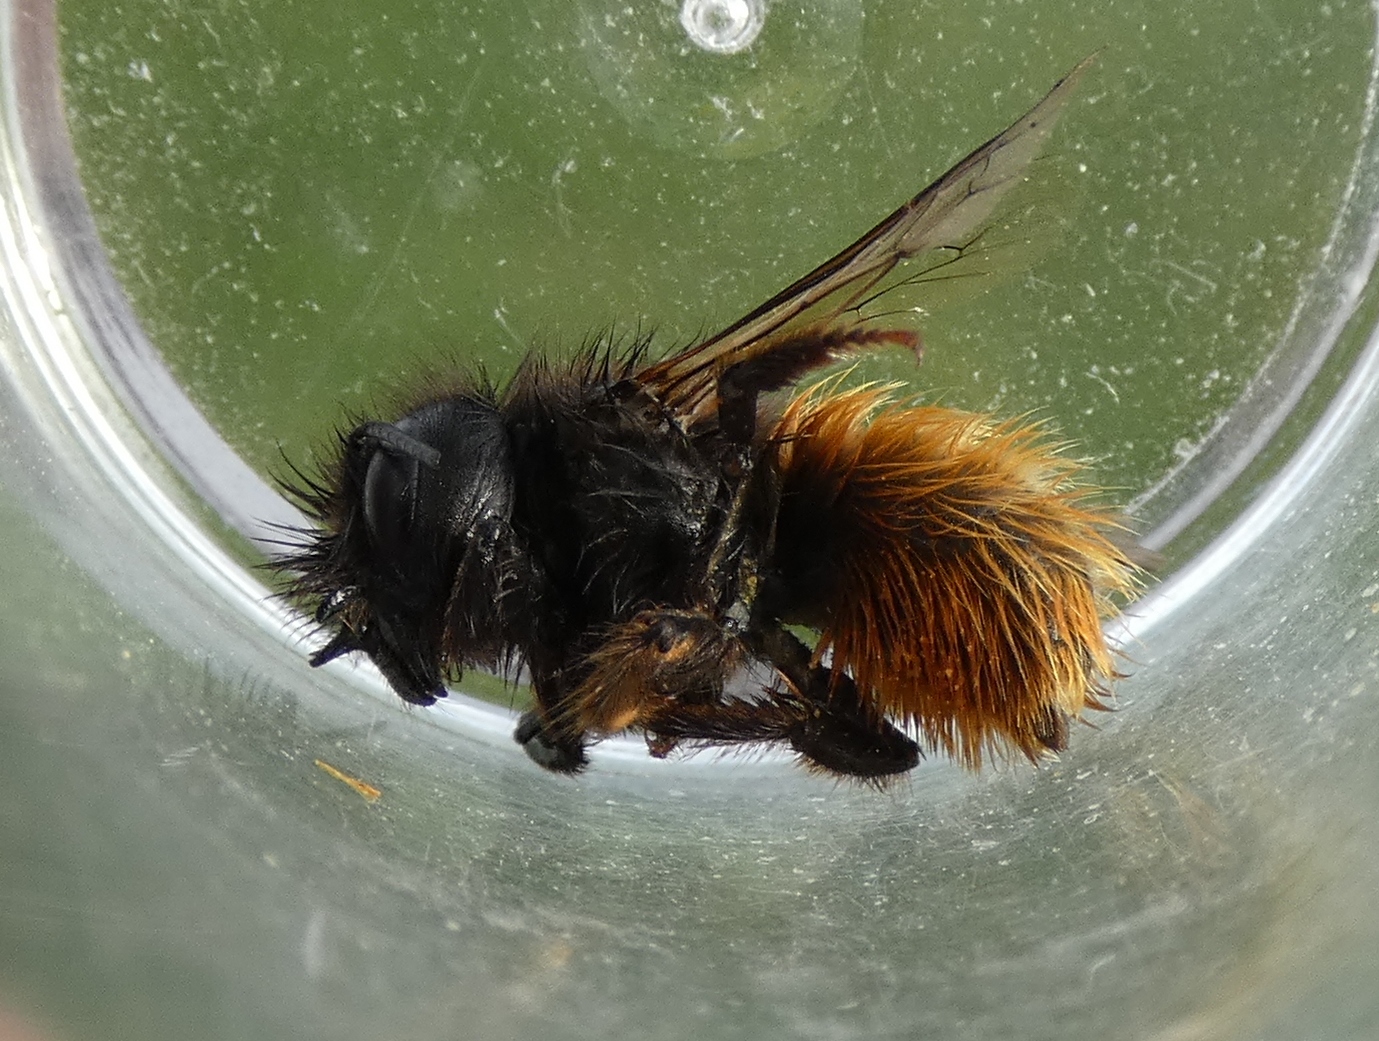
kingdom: Animalia
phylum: Arthropoda
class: Insecta
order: Hymenoptera
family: Megachilidae
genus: Osmia
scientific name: Osmia cornuta
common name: Mason bee
